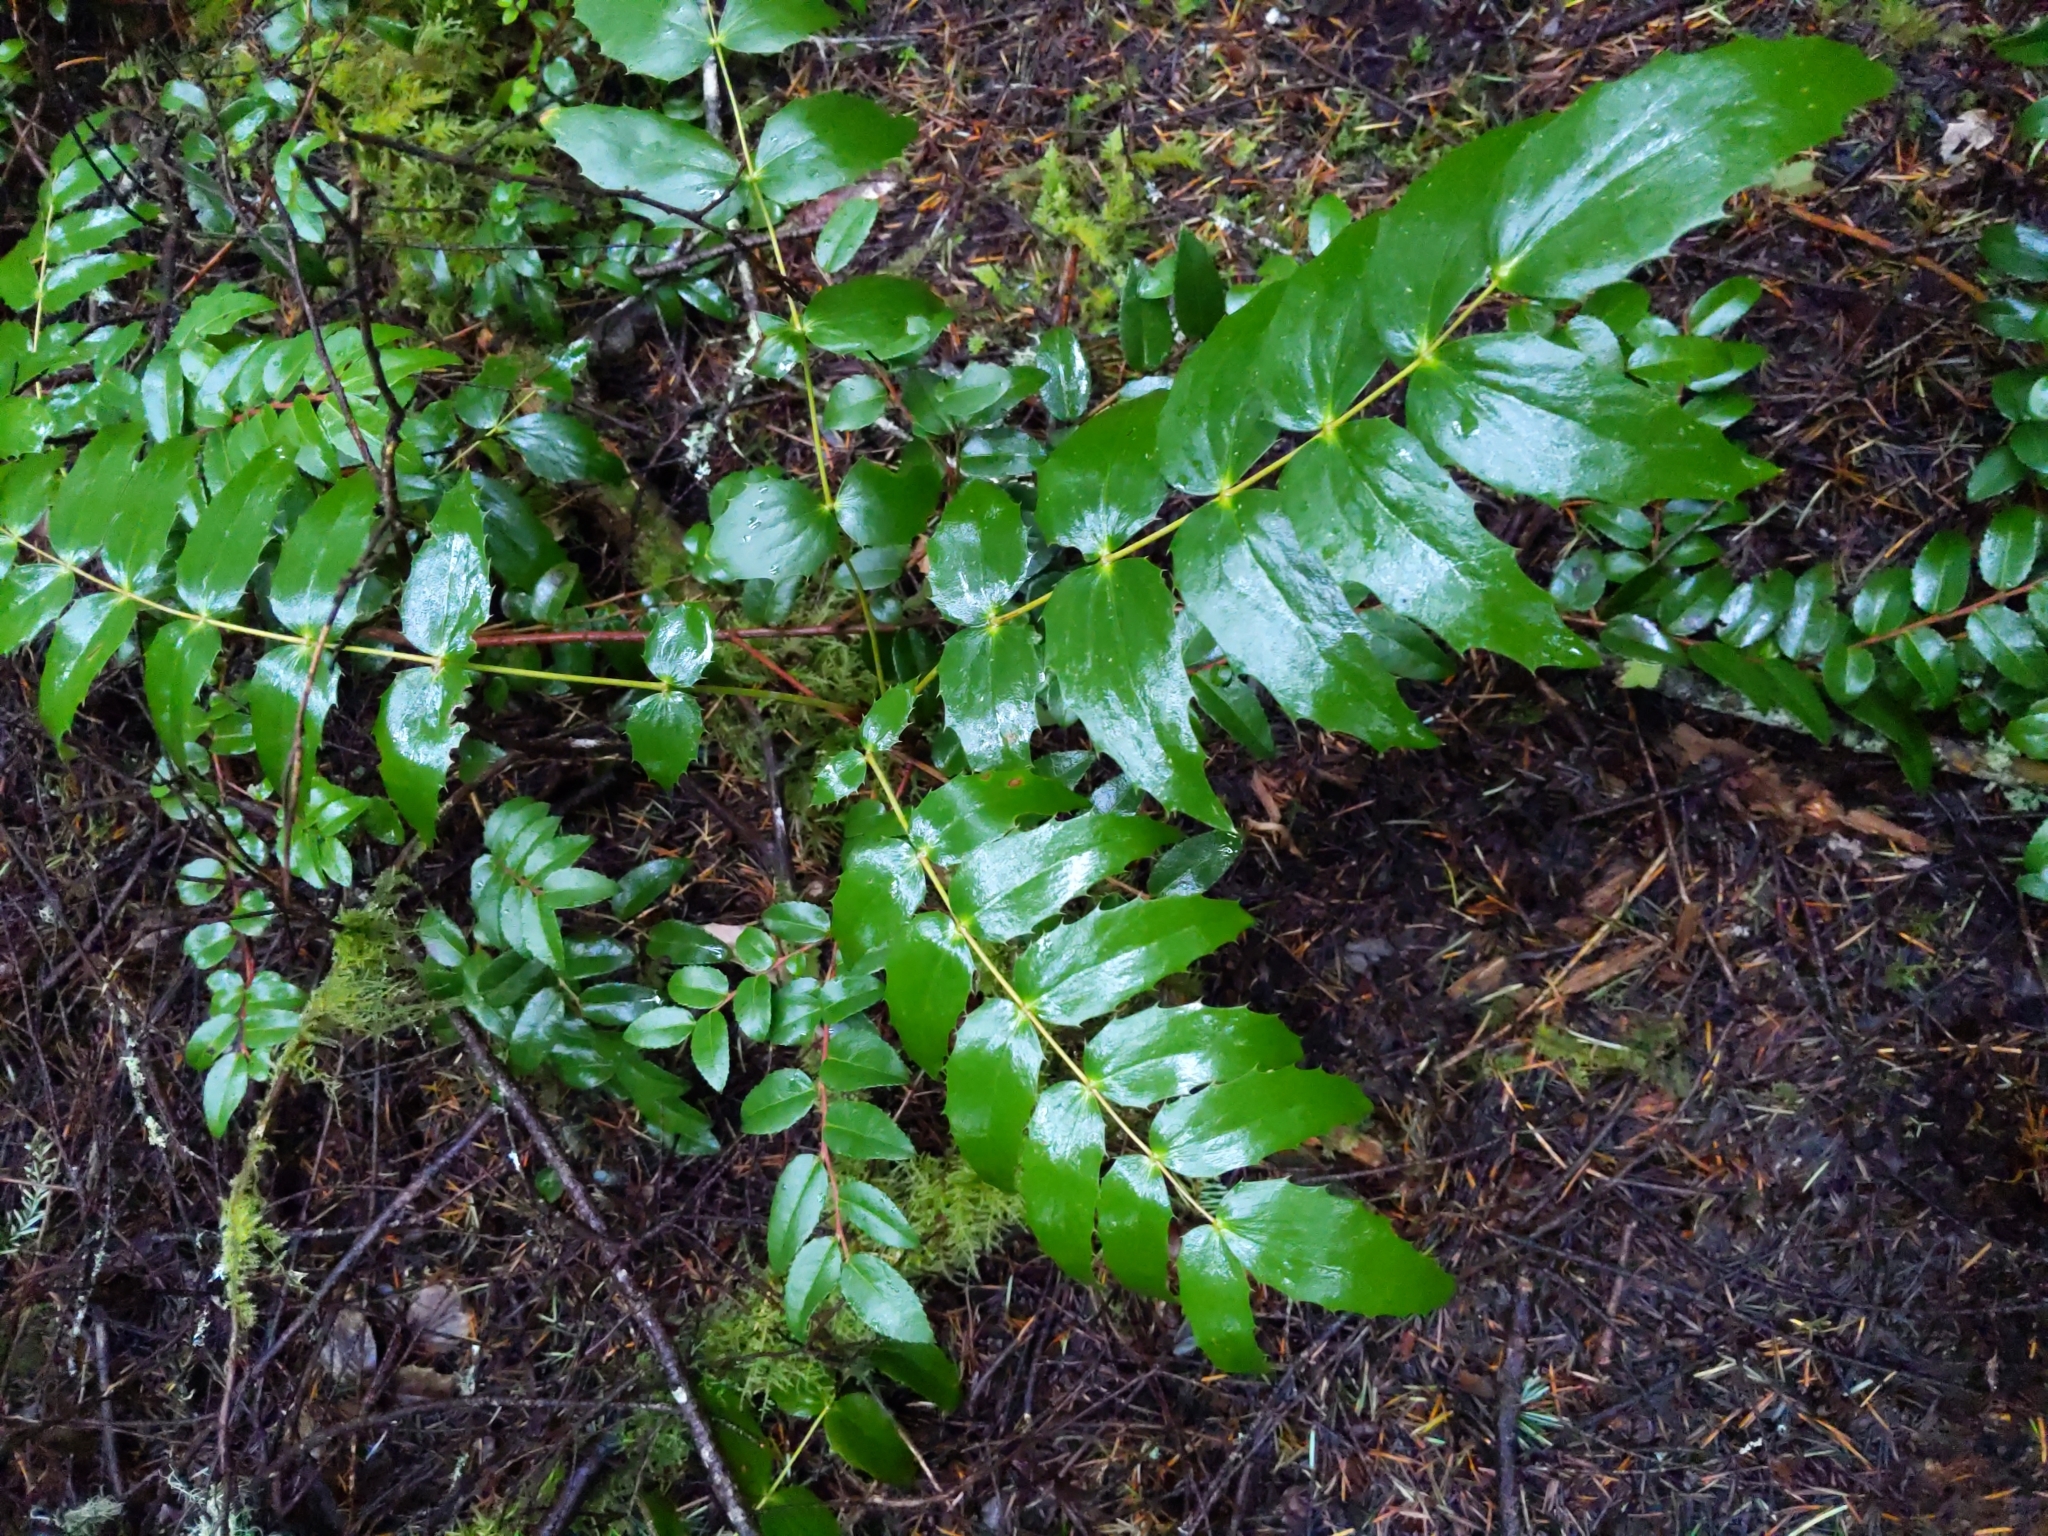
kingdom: Plantae
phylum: Tracheophyta
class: Magnoliopsida
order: Ranunculales
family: Berberidaceae
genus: Mahonia
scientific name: Mahonia nervosa
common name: Cascade oregon-grape
